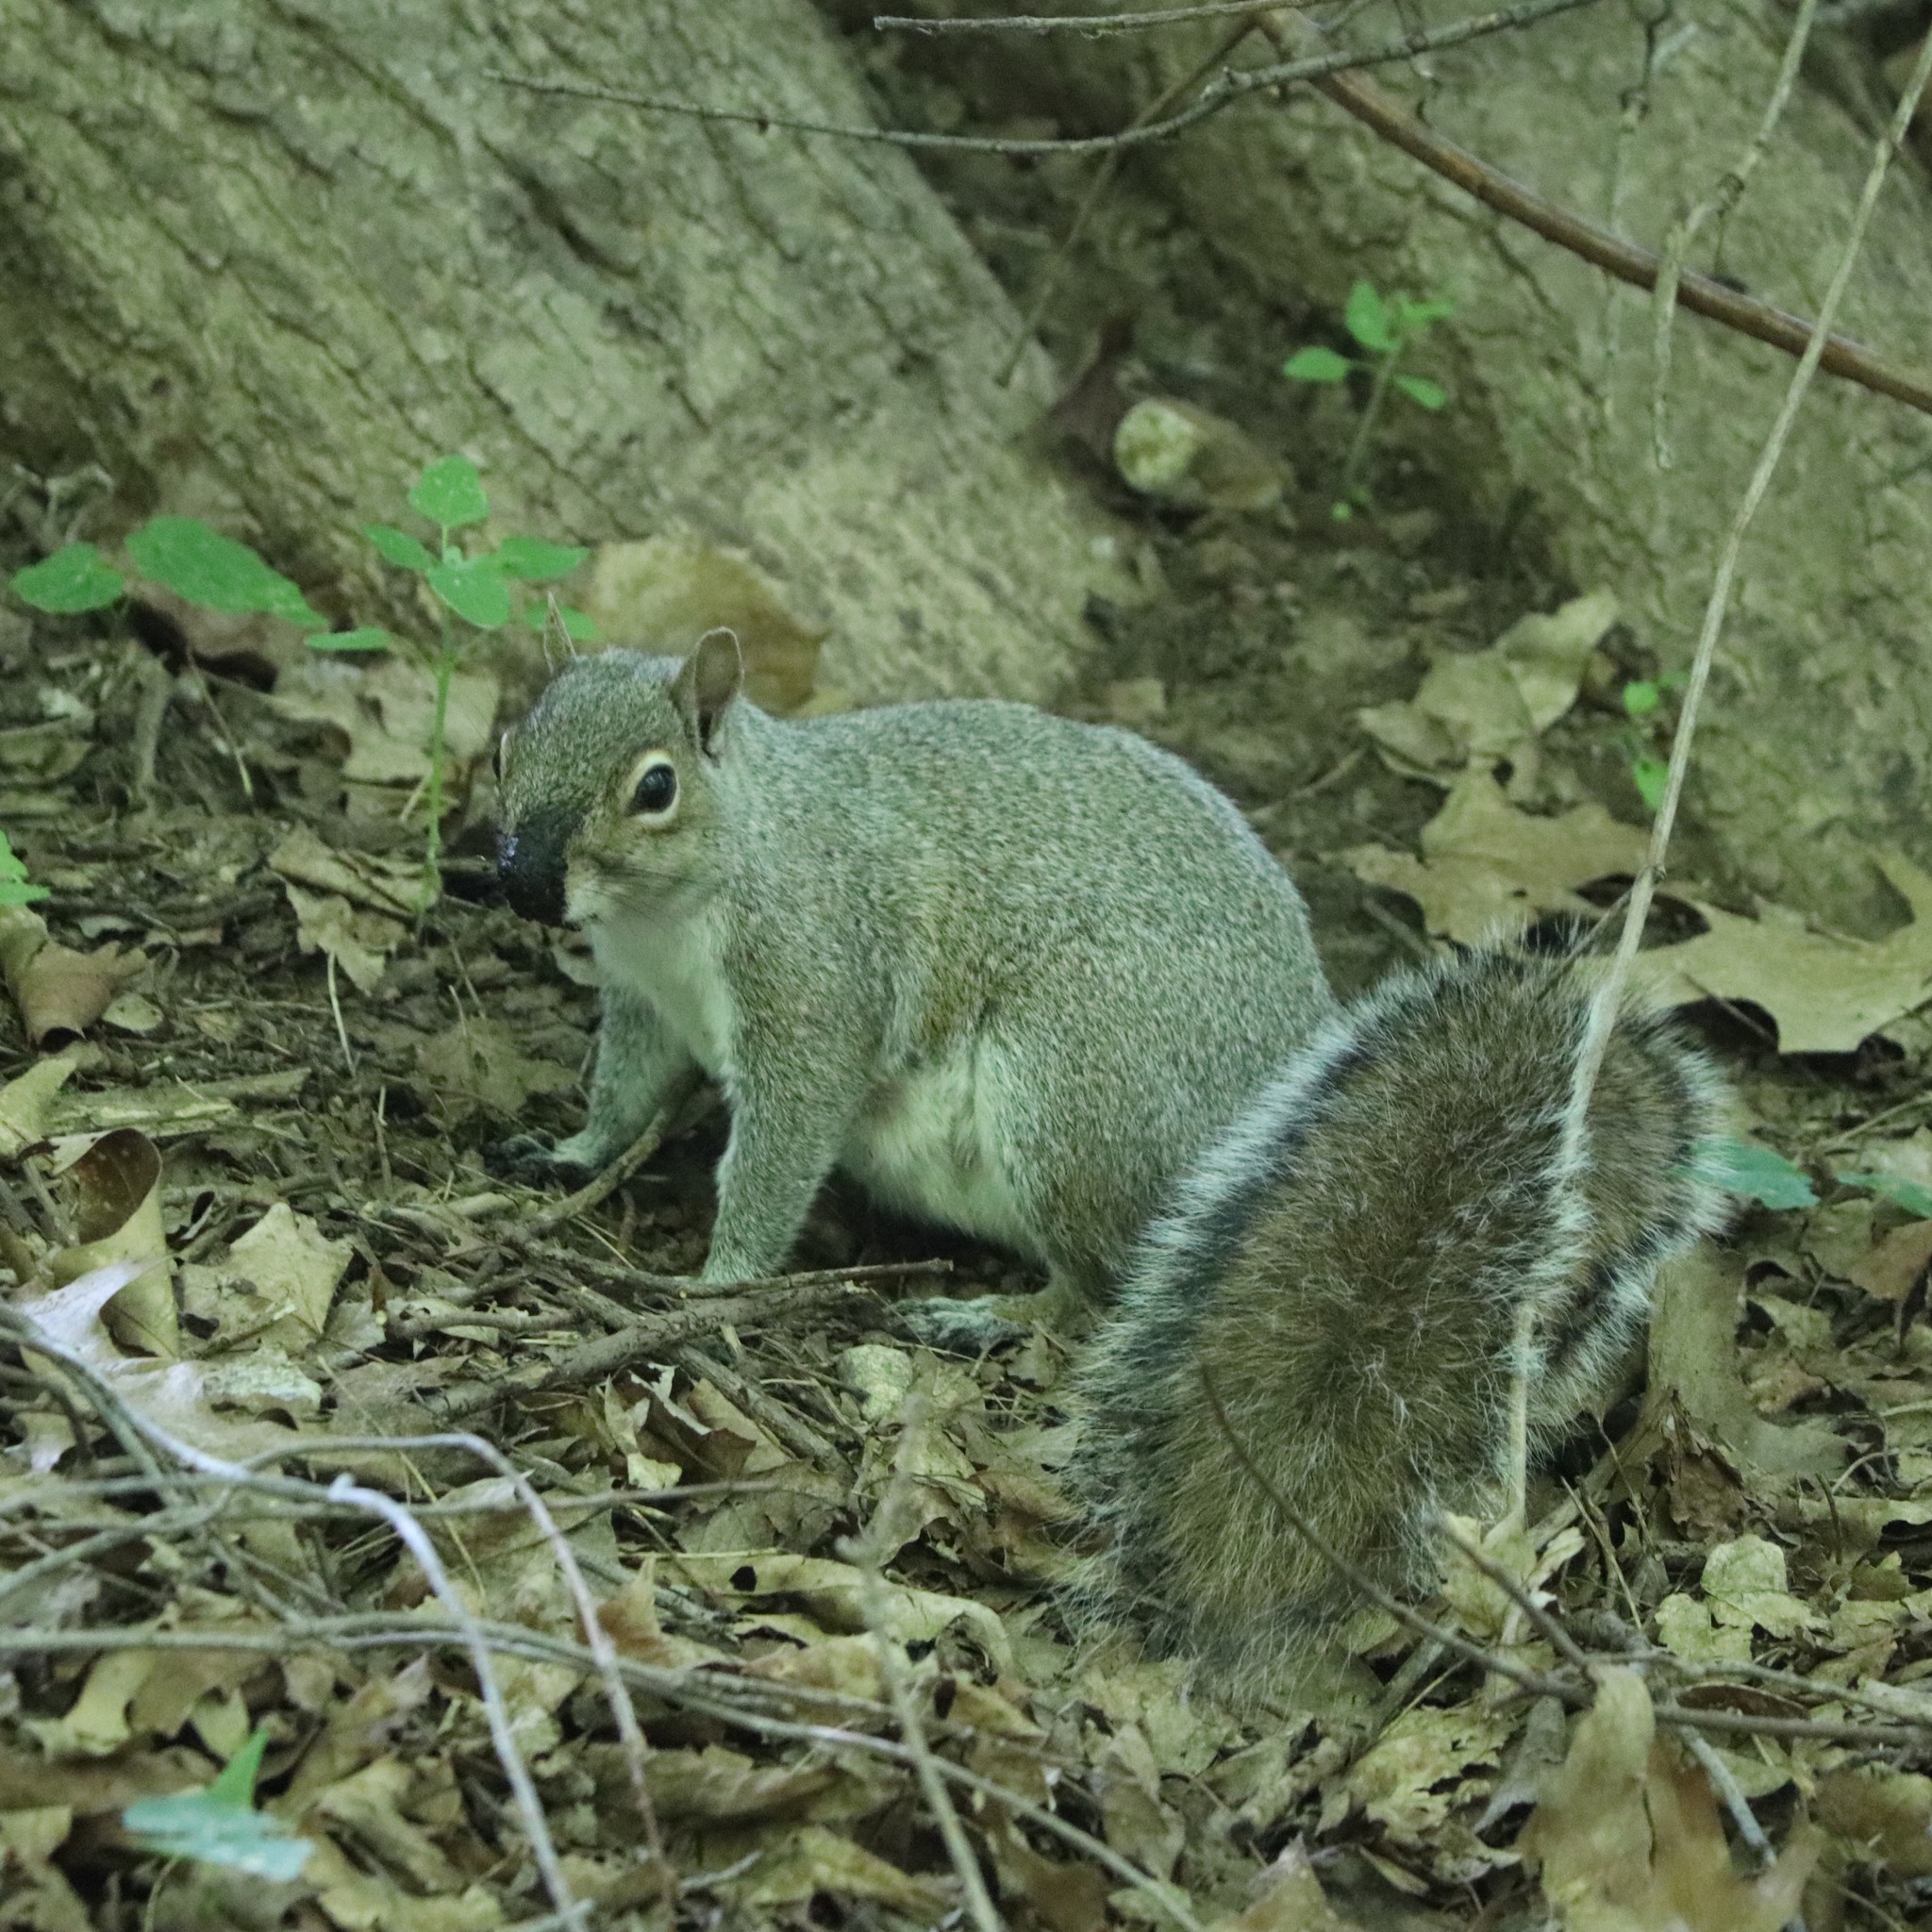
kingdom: Animalia
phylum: Chordata
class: Mammalia
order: Rodentia
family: Sciuridae
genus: Sciurus
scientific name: Sciurus carolinensis
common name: Eastern gray squirrel
